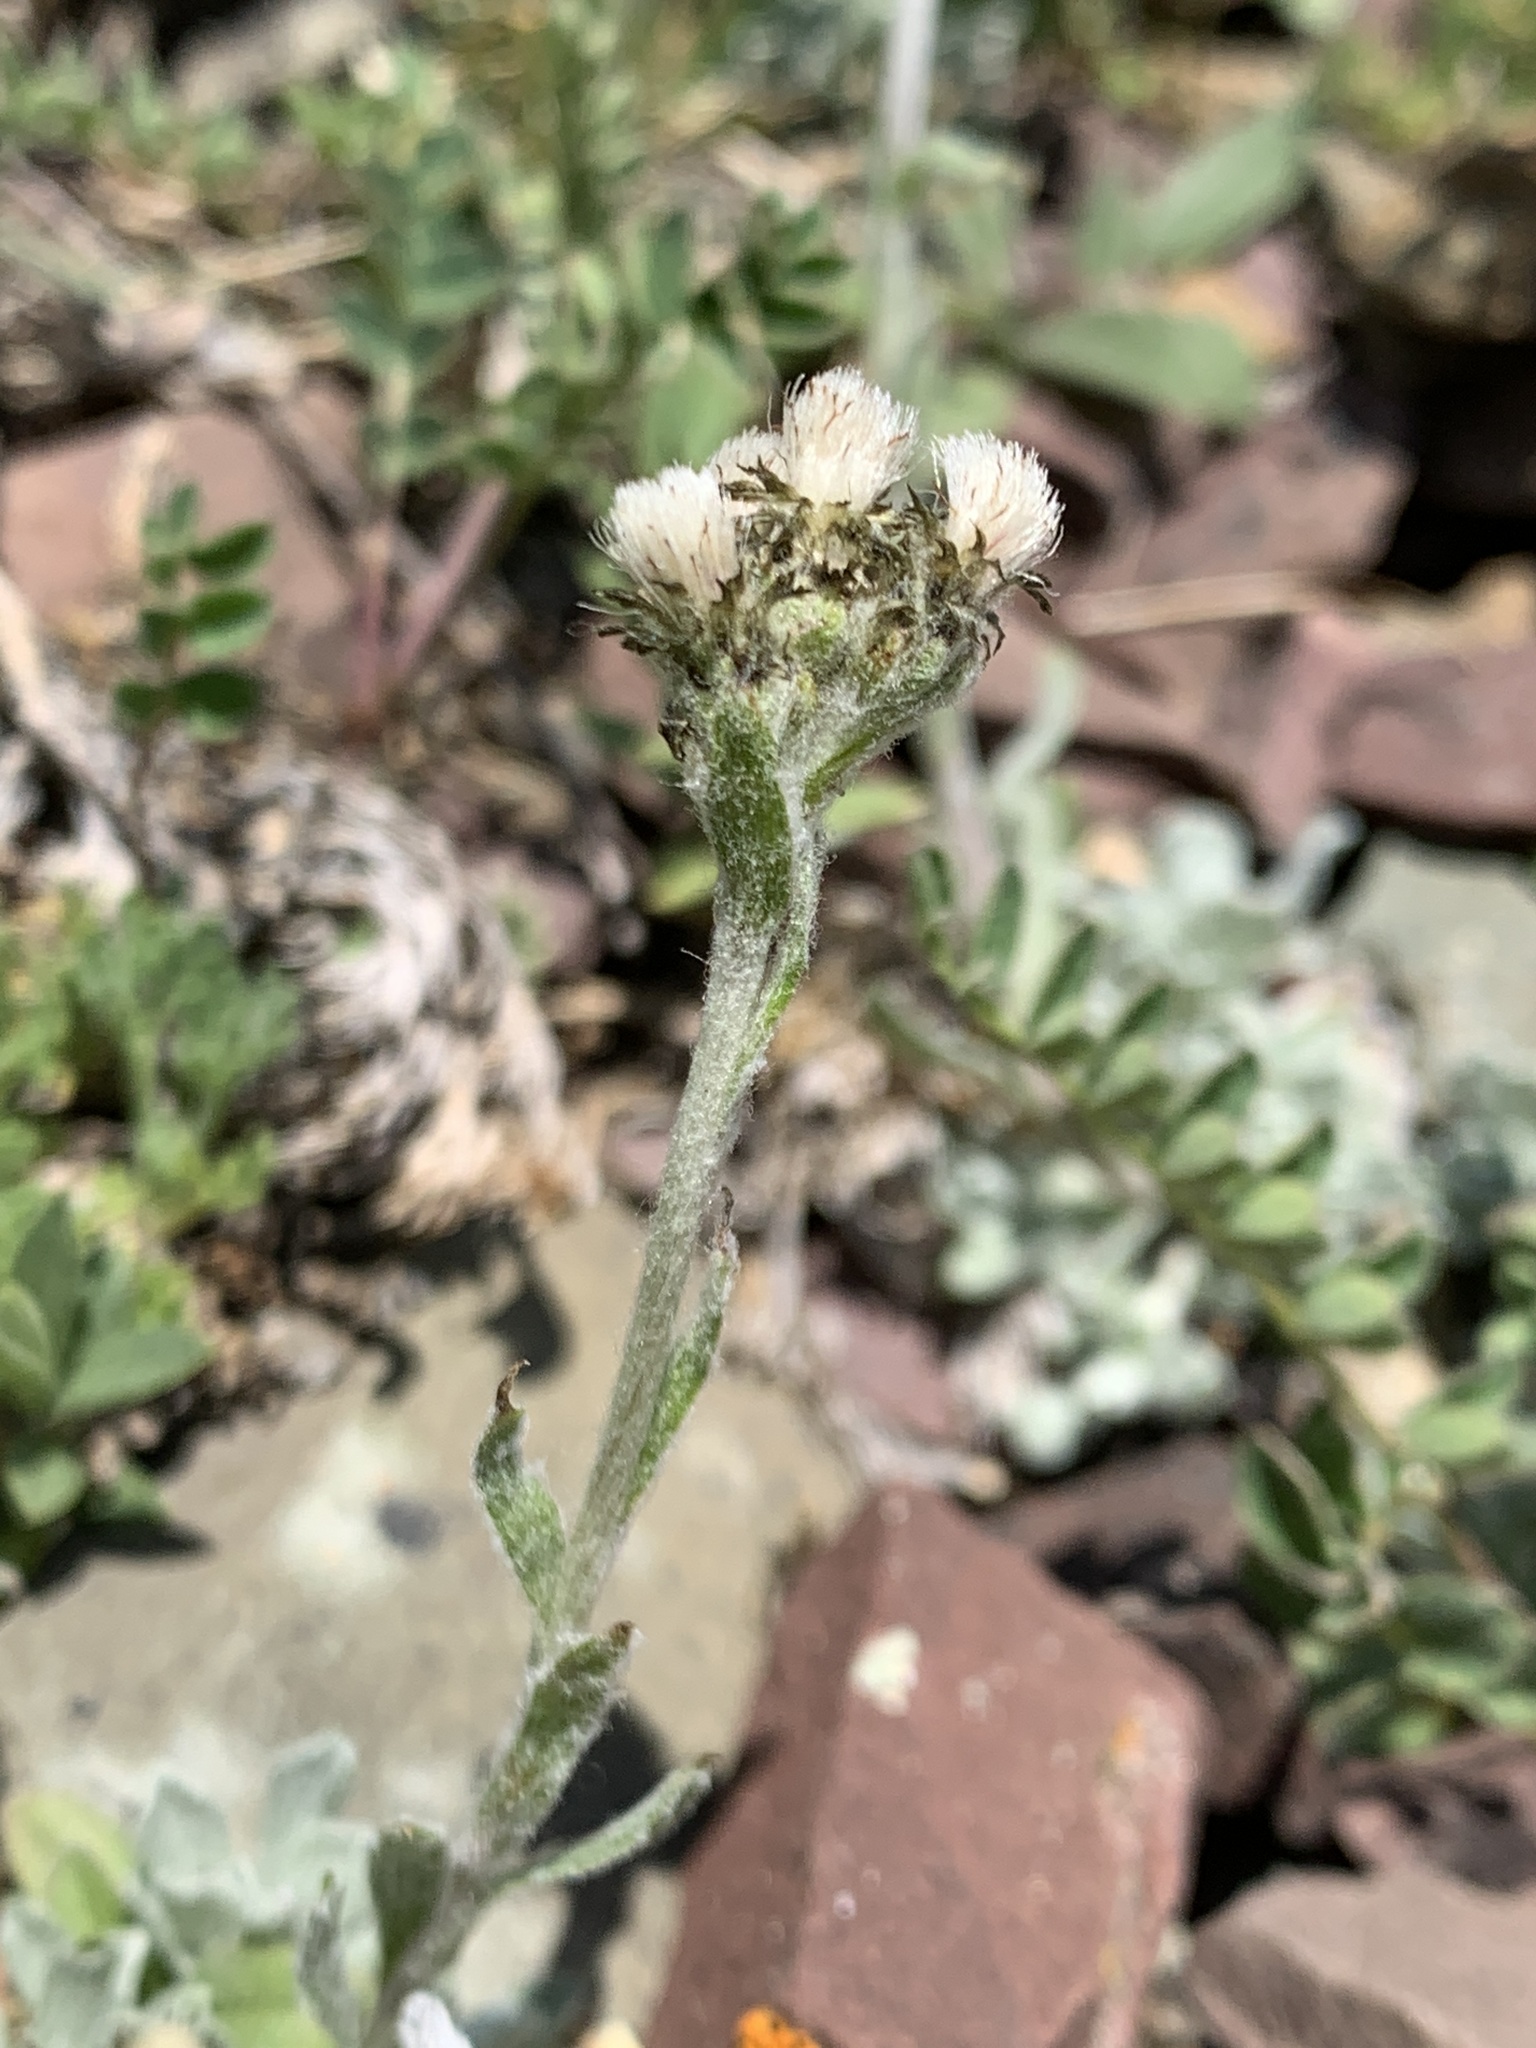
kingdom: Plantae
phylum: Tracheophyta
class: Magnoliopsida
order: Asterales
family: Asteraceae
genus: Antennaria
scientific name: Antennaria alpina
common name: Alpine pussytoes
